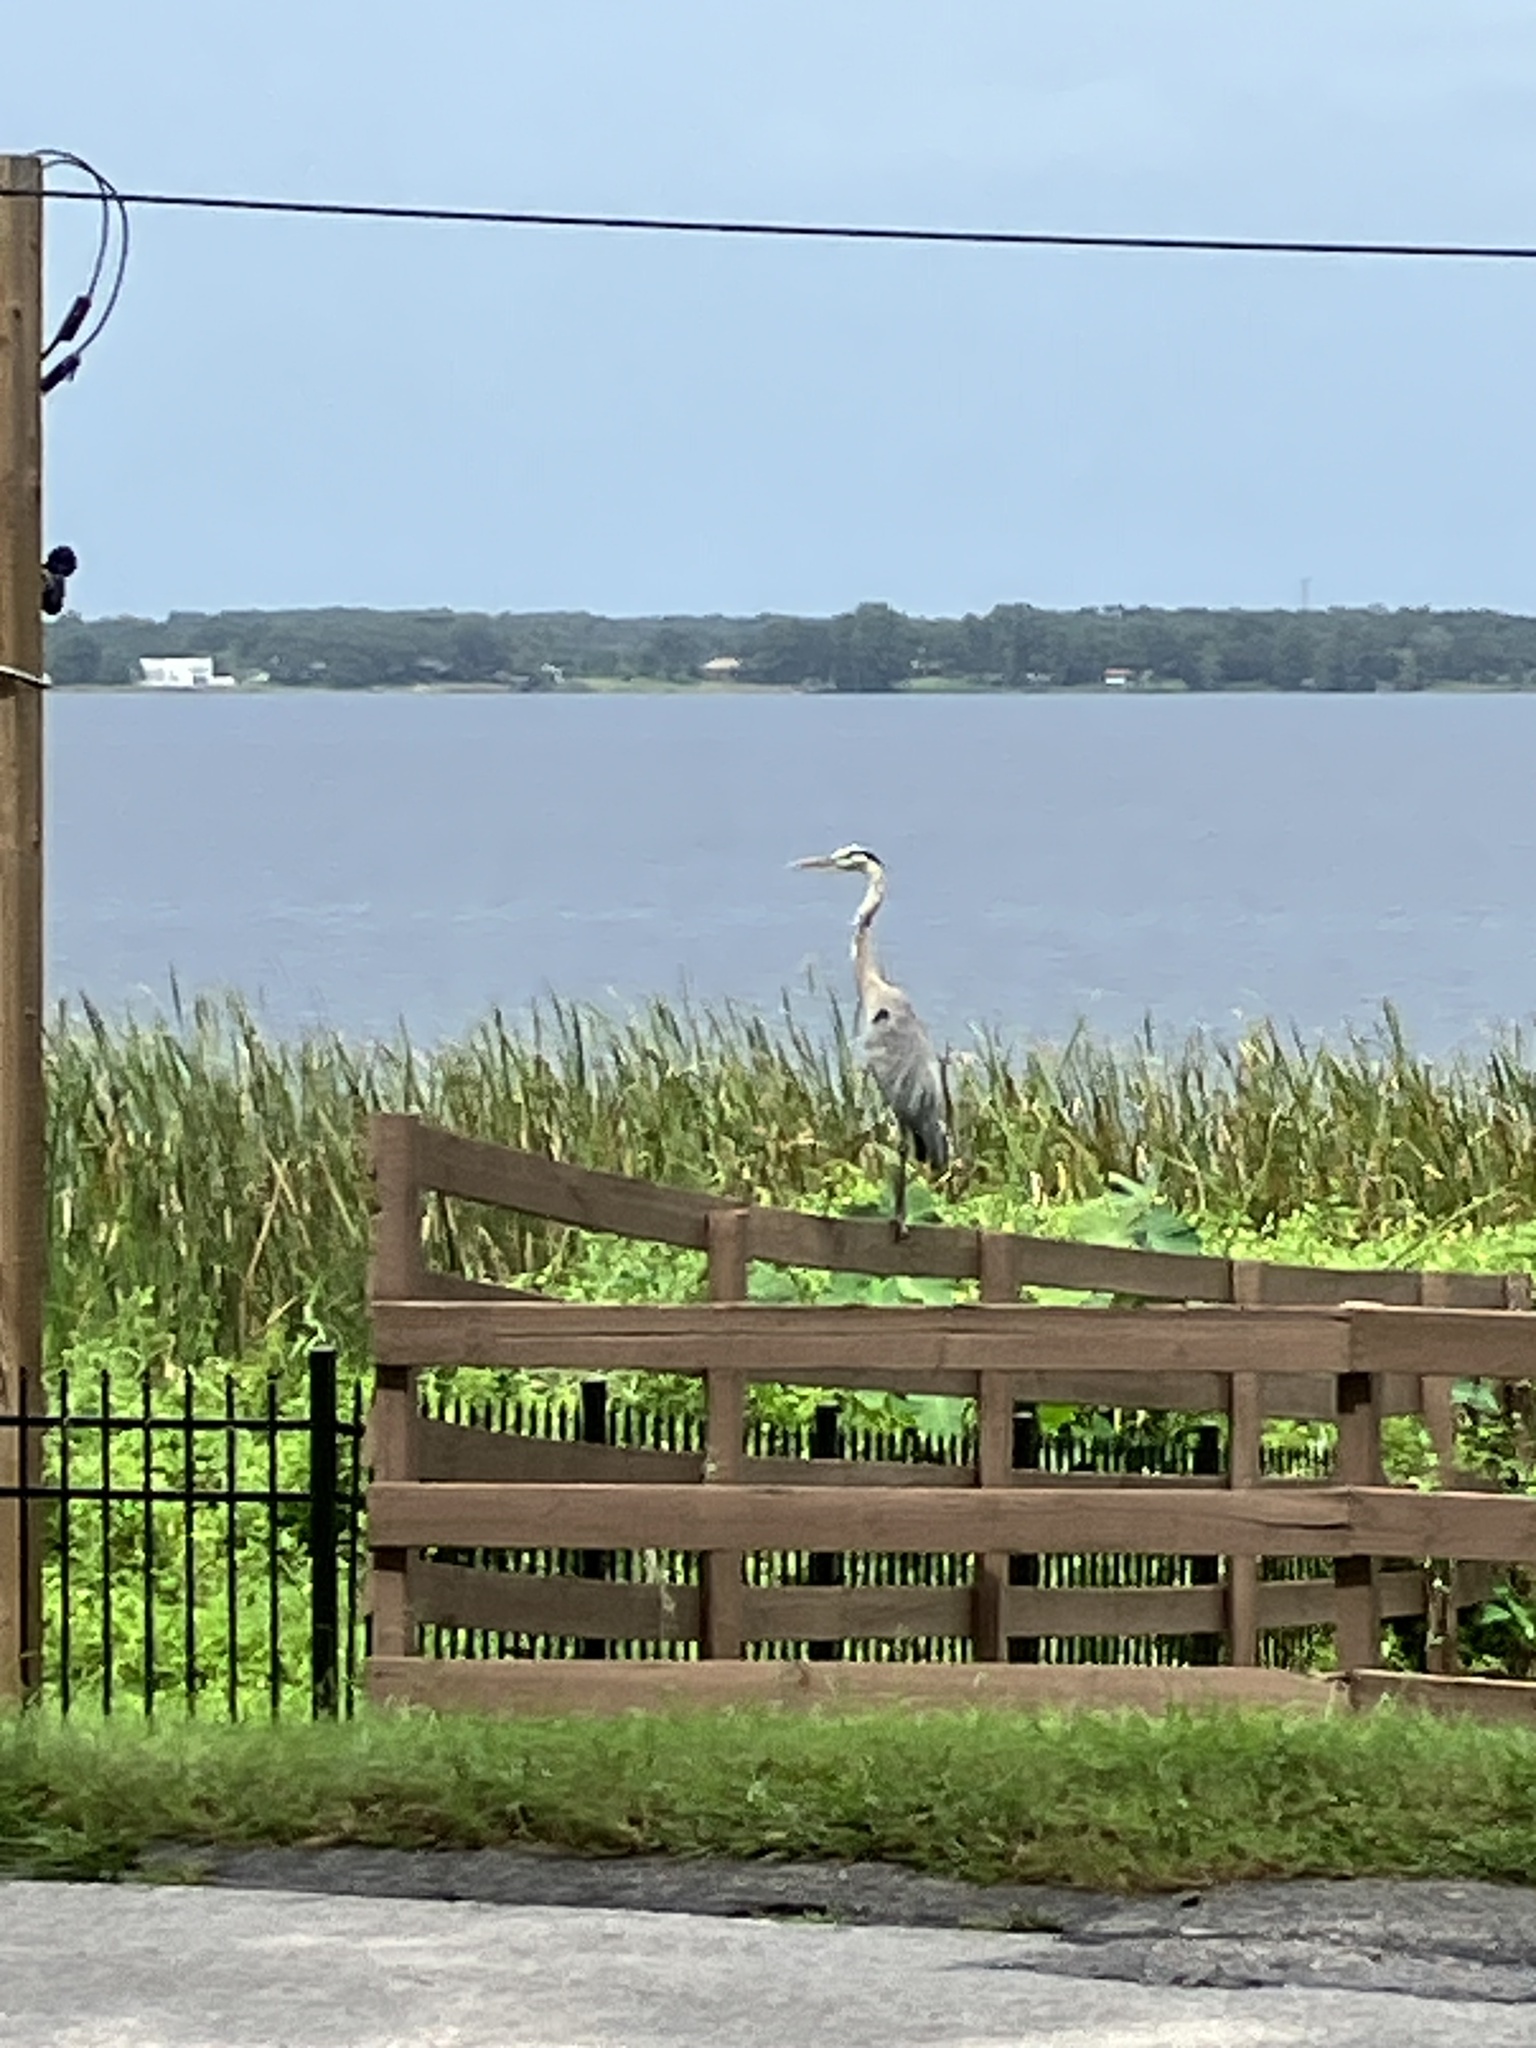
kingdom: Animalia
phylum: Chordata
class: Aves
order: Pelecaniformes
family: Ardeidae
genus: Ardea
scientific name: Ardea herodias
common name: Great blue heron
